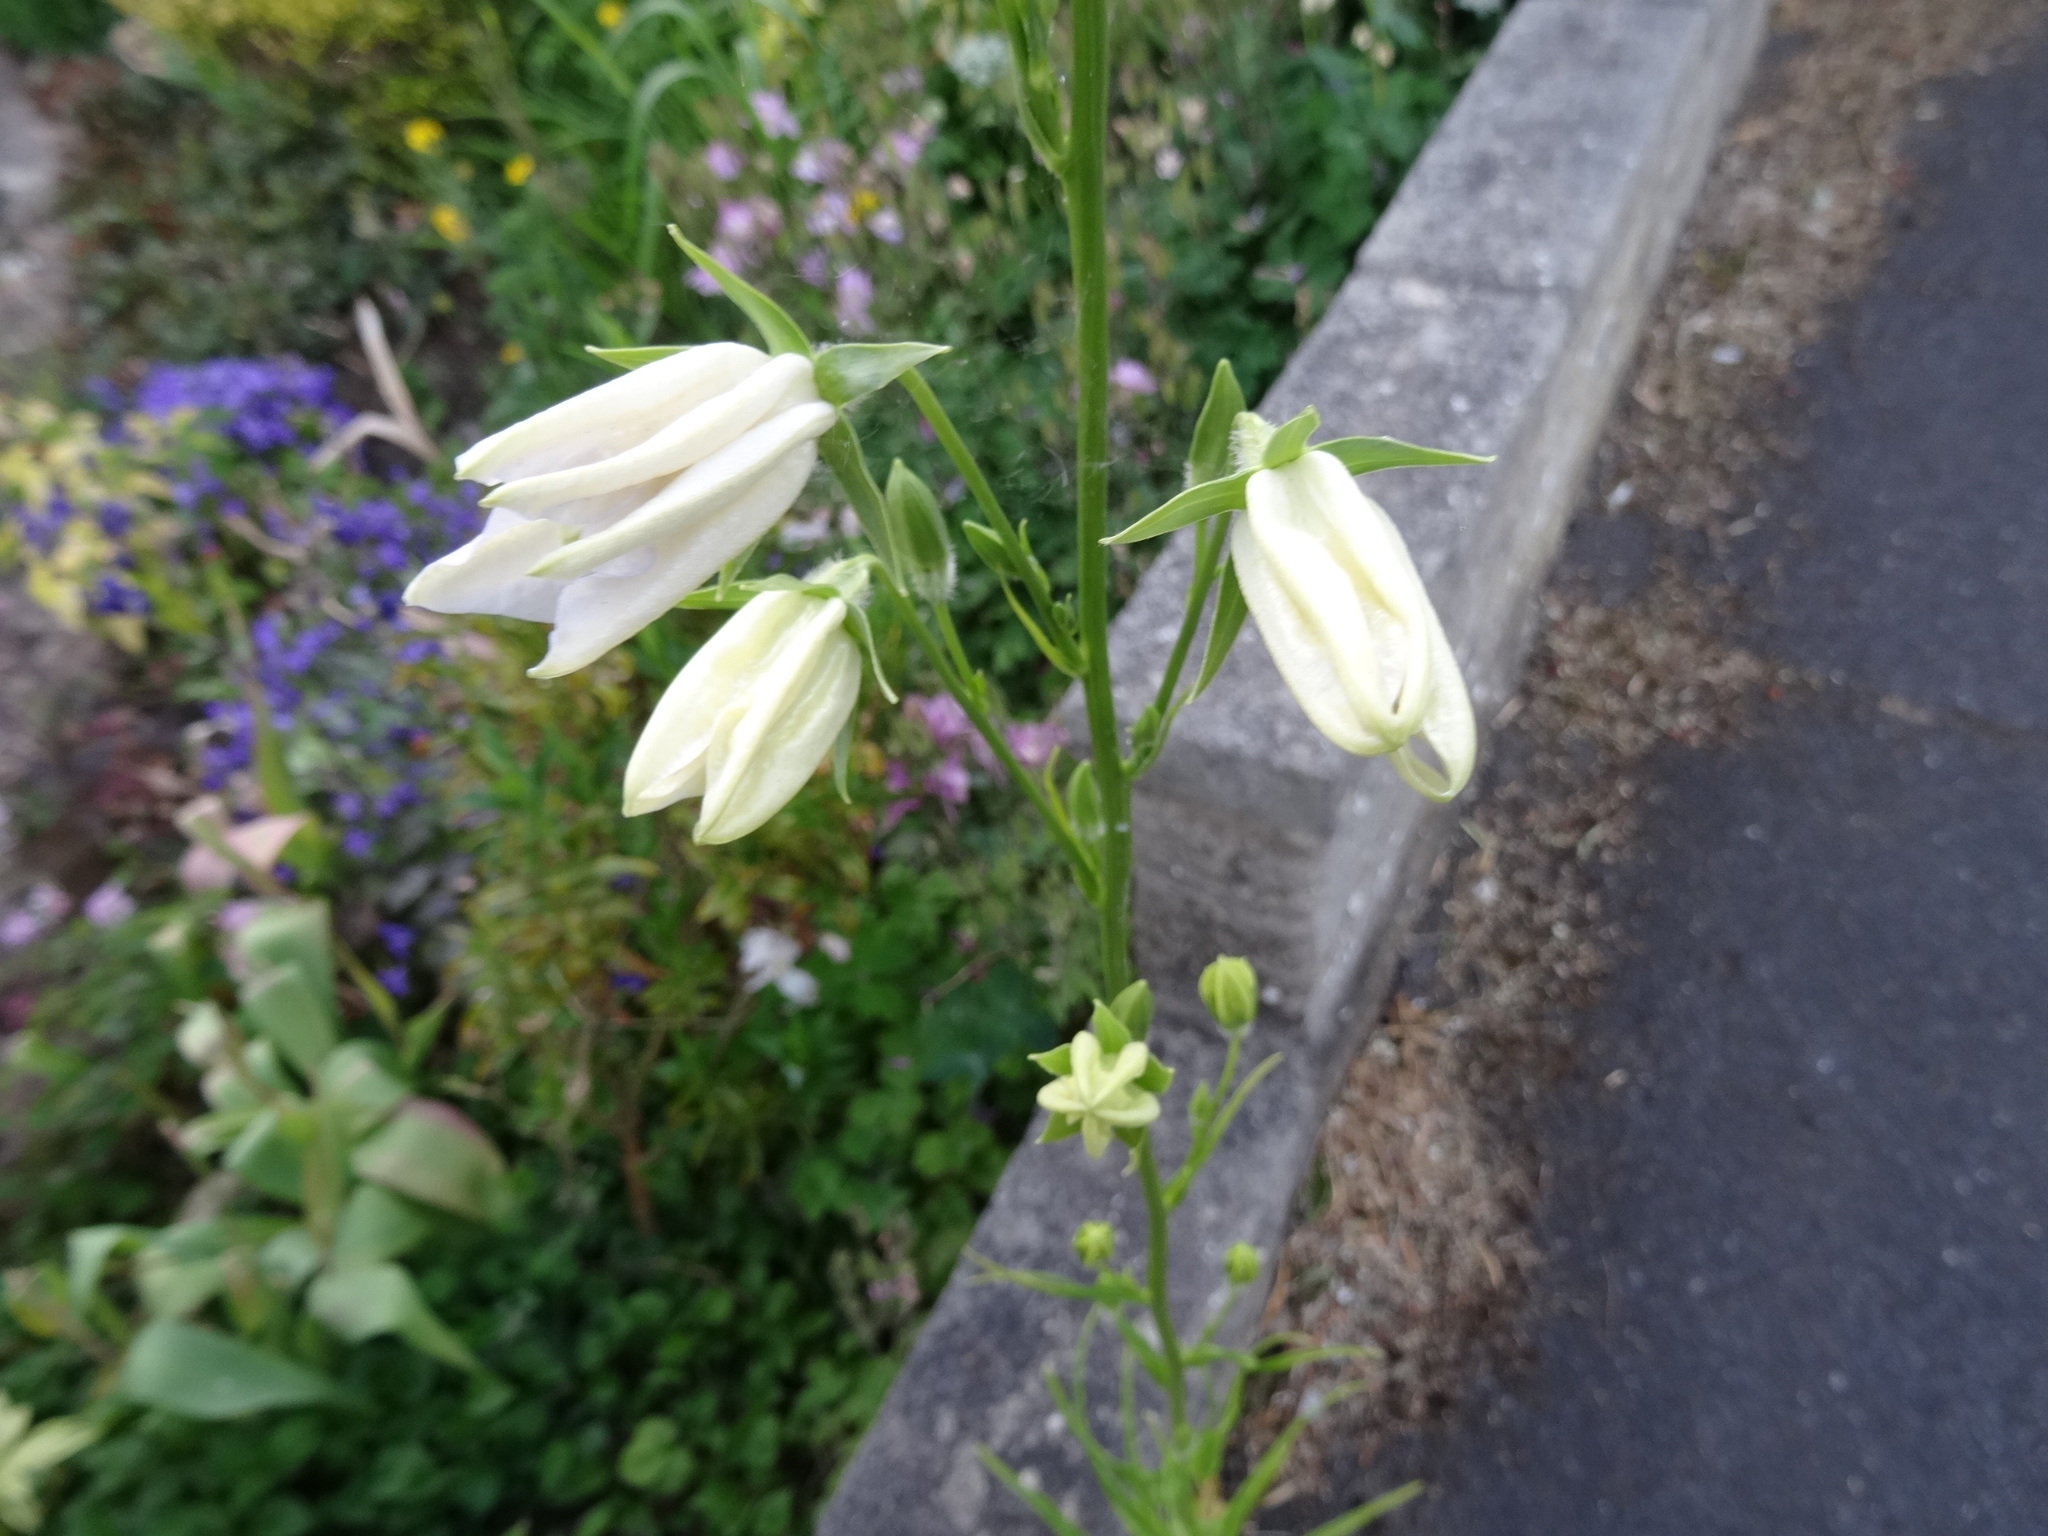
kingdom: Plantae
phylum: Tracheophyta
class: Magnoliopsida
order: Asterales
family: Campanulaceae
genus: Campanula
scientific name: Campanula persicifolia
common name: Peach-leaved bellflower
